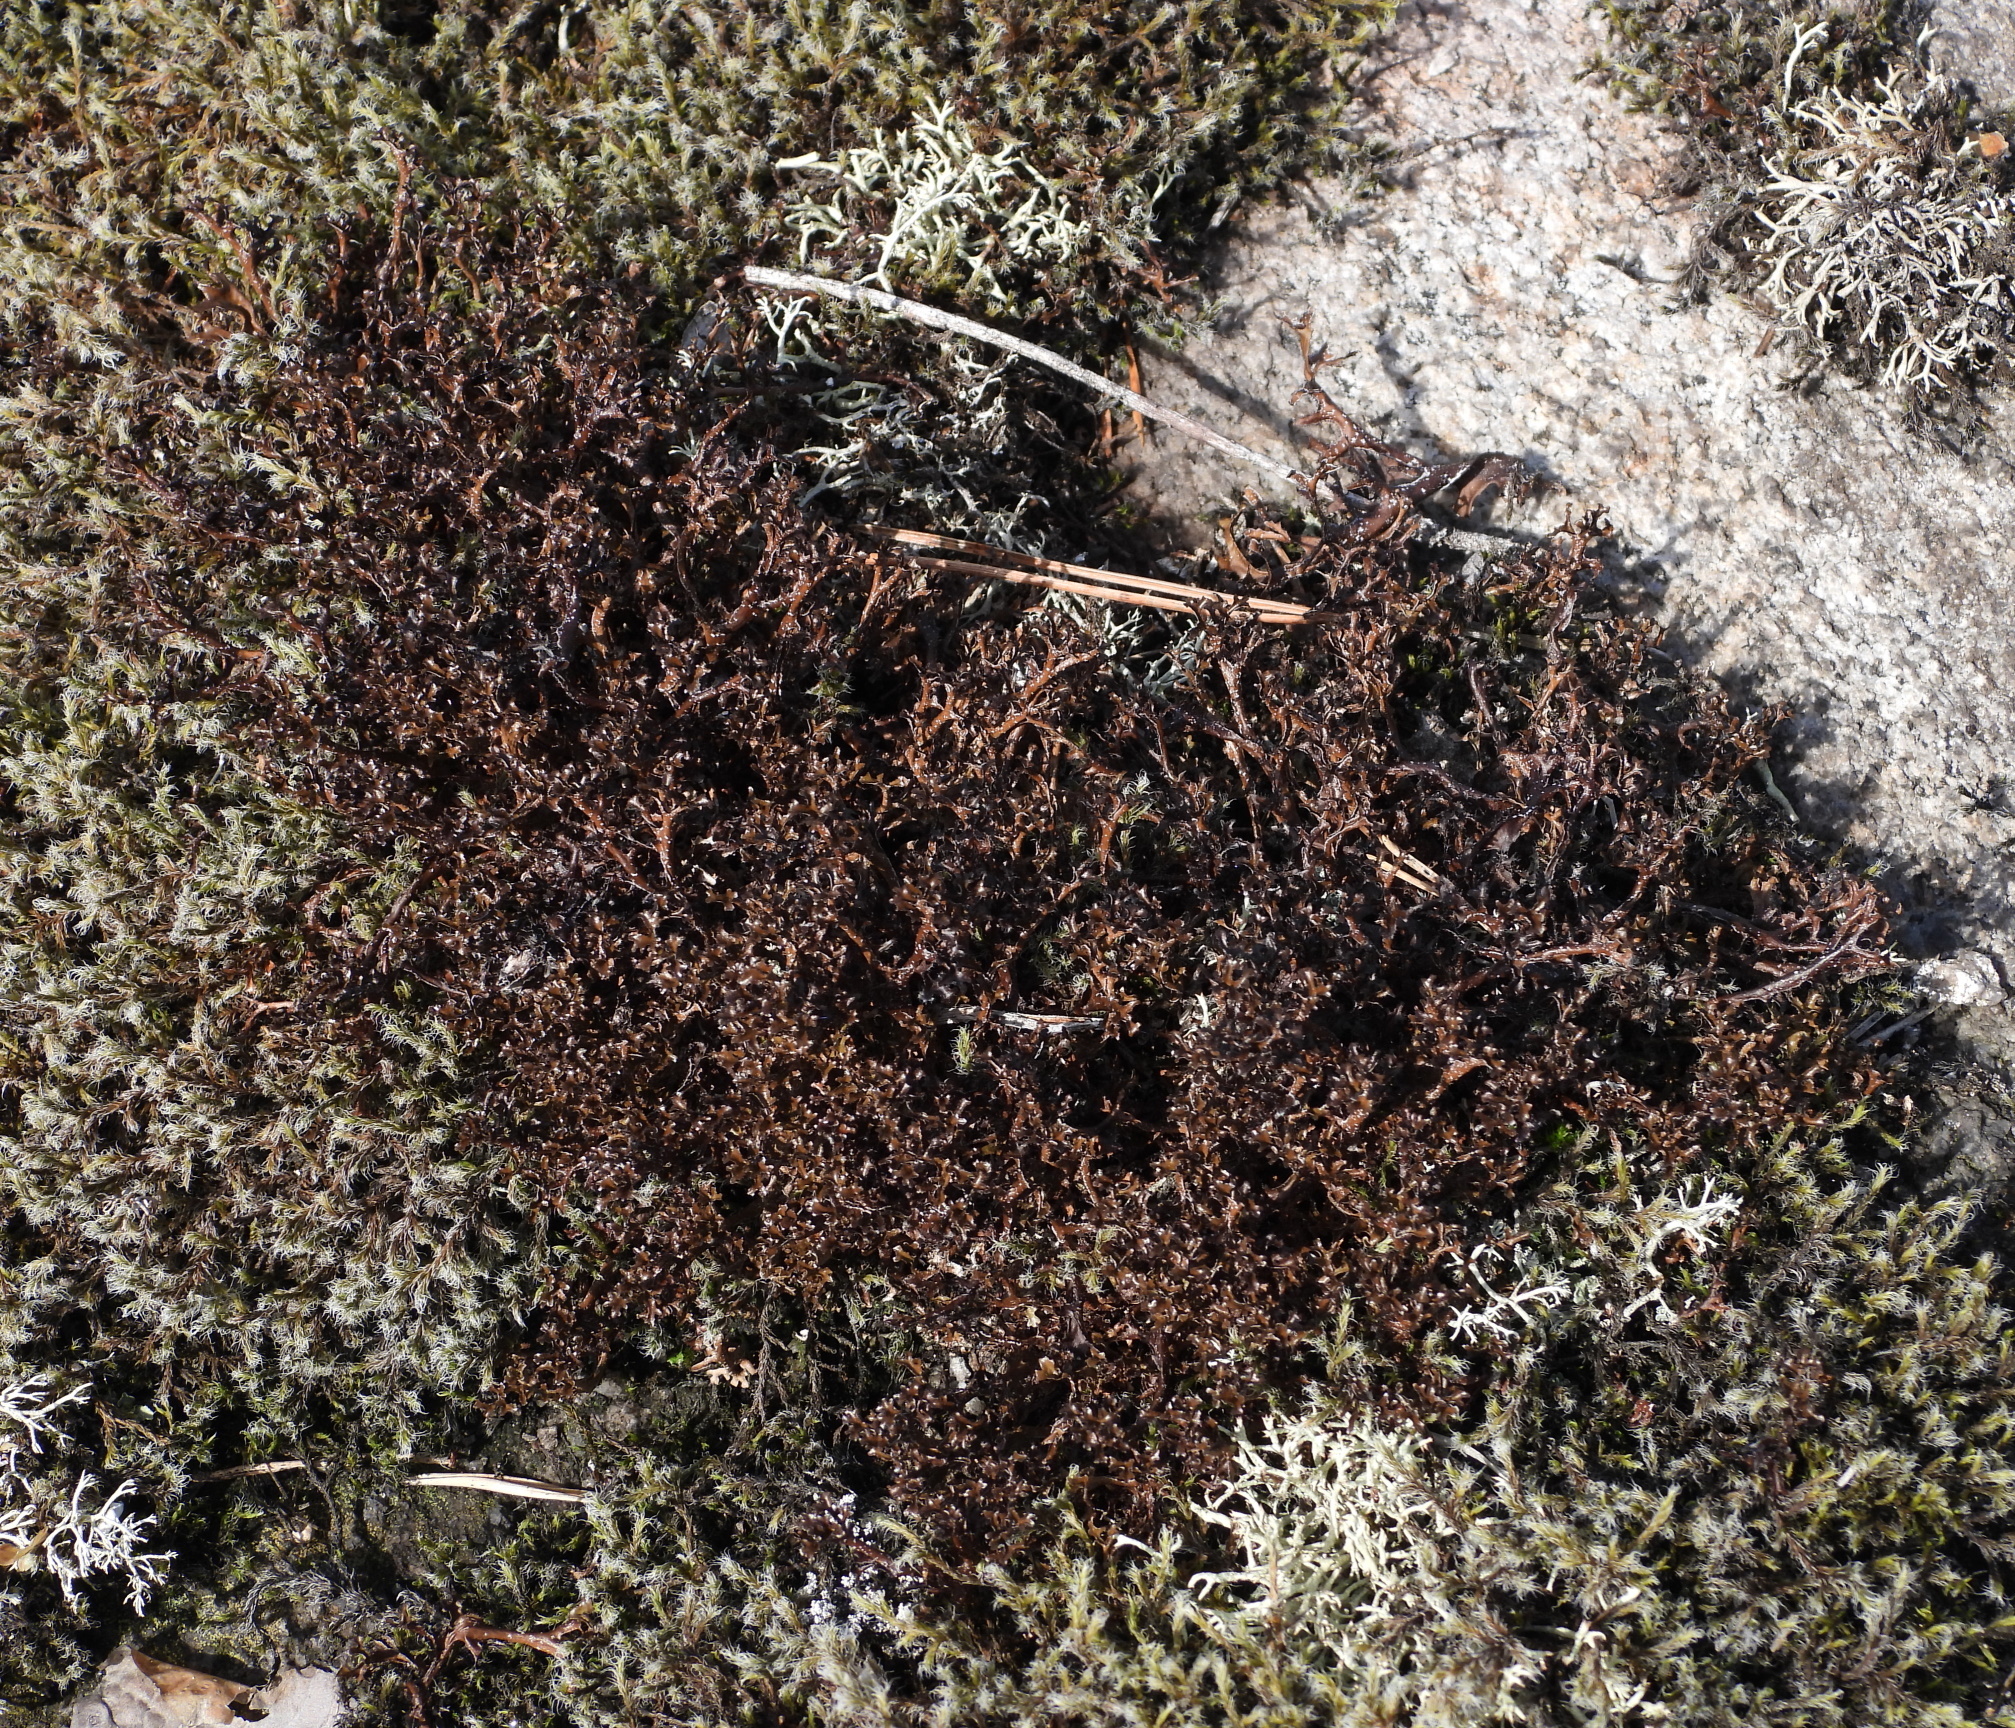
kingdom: Fungi
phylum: Ascomycota
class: Lecanoromycetes
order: Lecanorales
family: Parmeliaceae
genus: Cetraria
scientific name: Cetraria ericetorum
